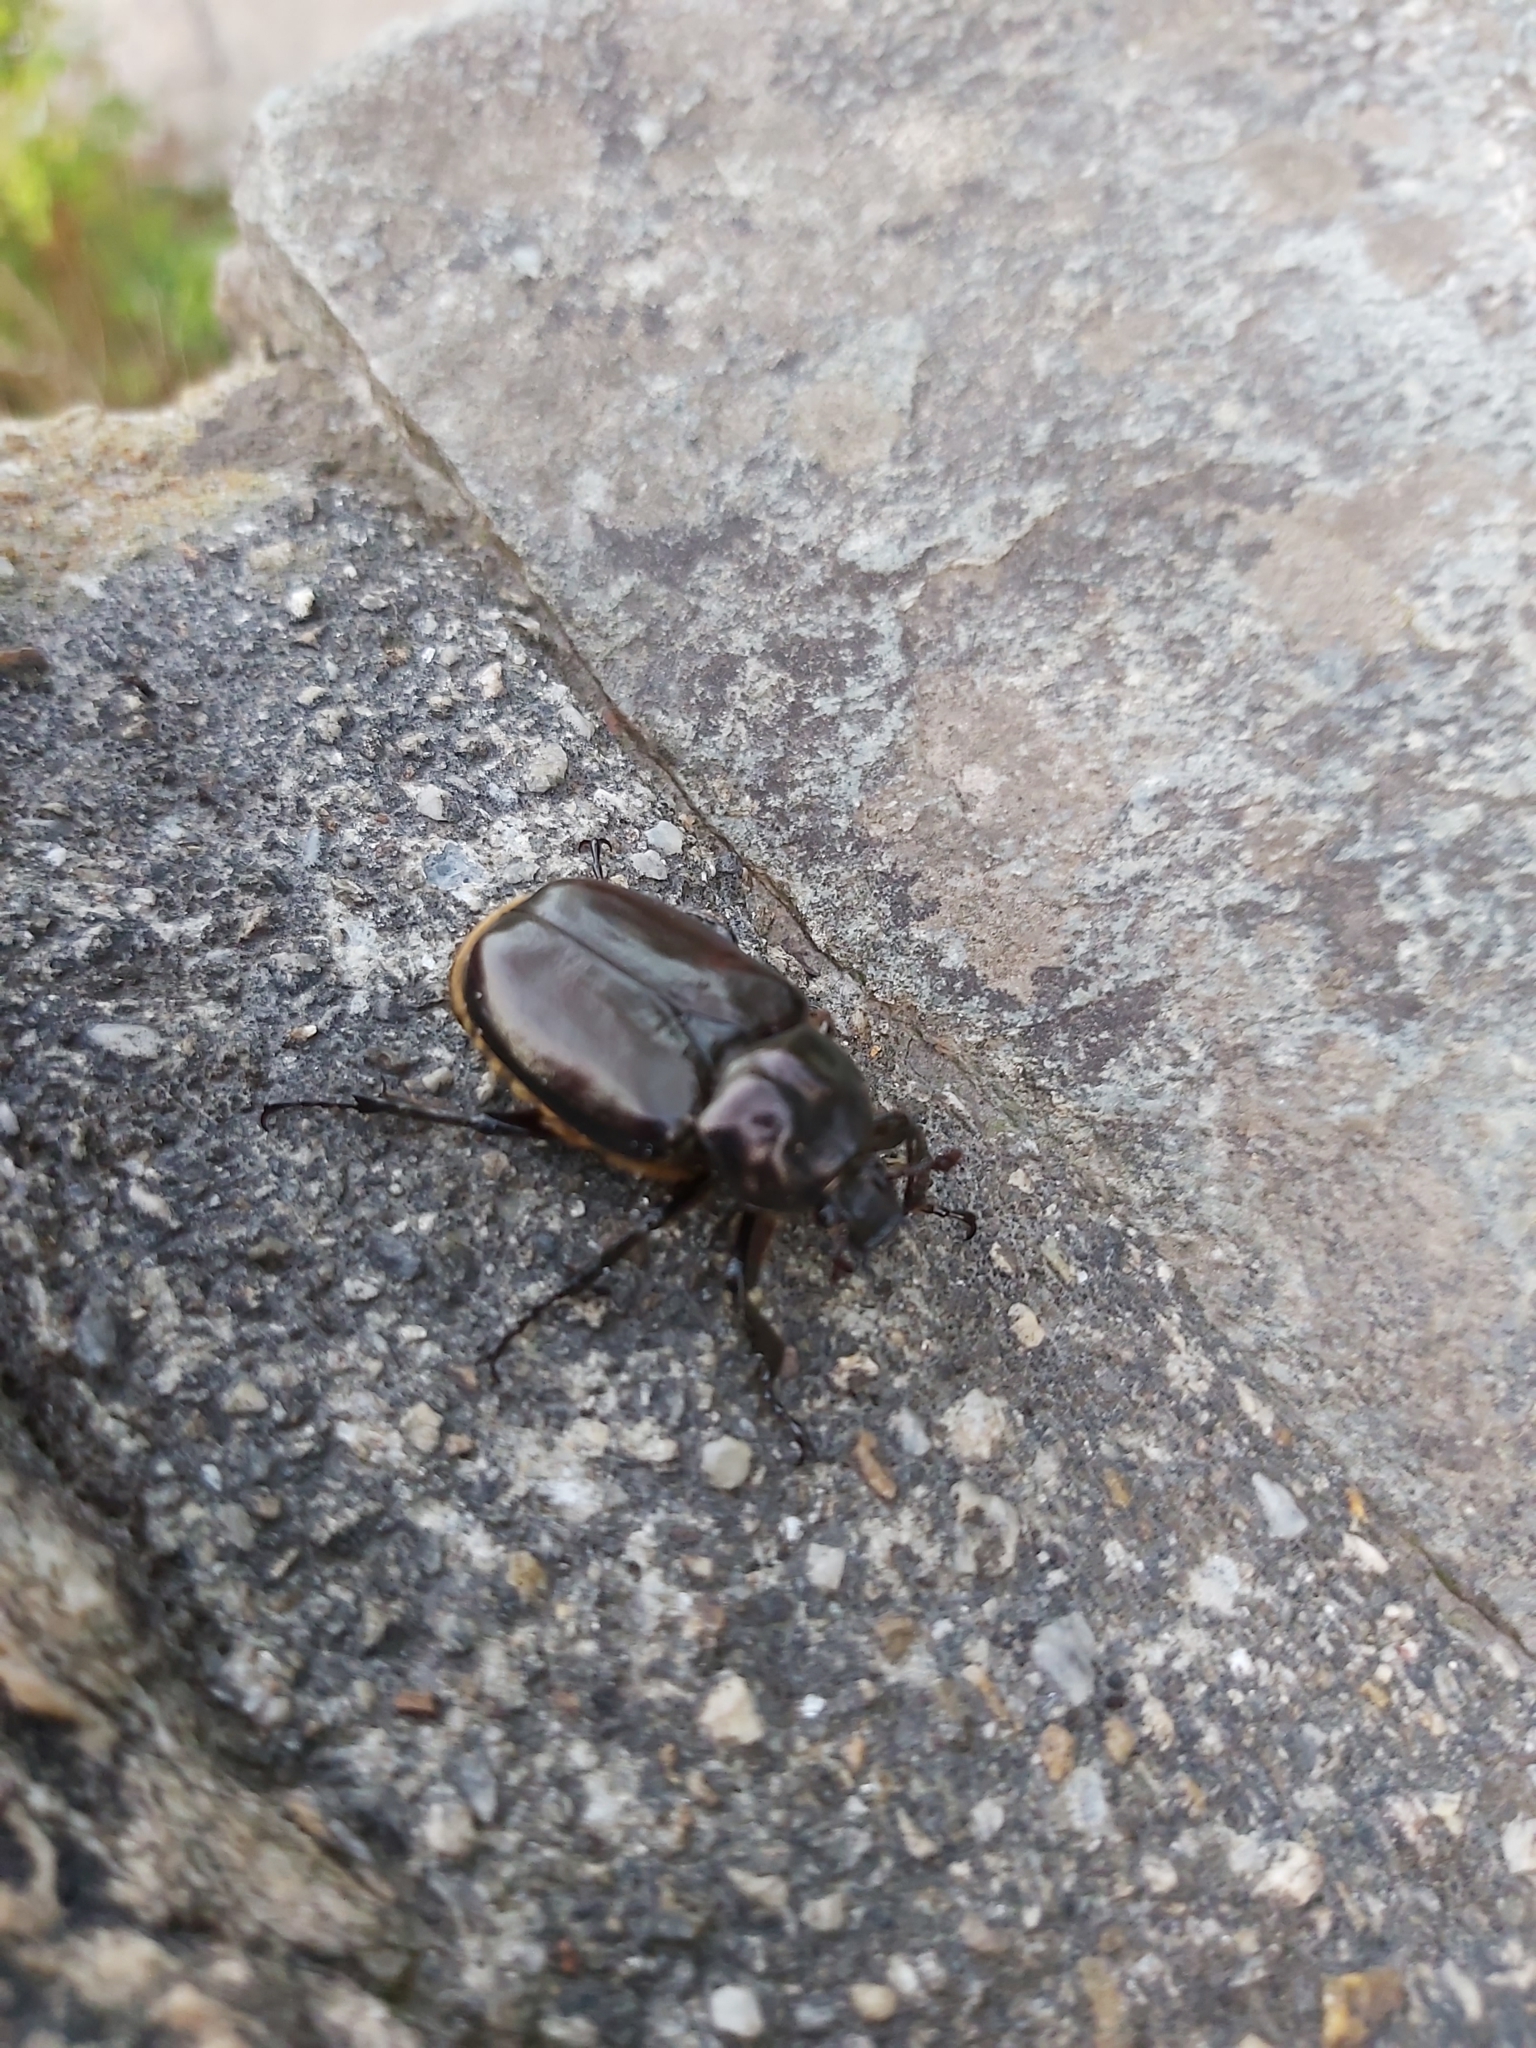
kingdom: Animalia
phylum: Arthropoda
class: Insecta
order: Coleoptera
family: Scarabaeidae
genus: Osmoderma
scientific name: Osmoderma eremicola
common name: Hermit flower beetle
